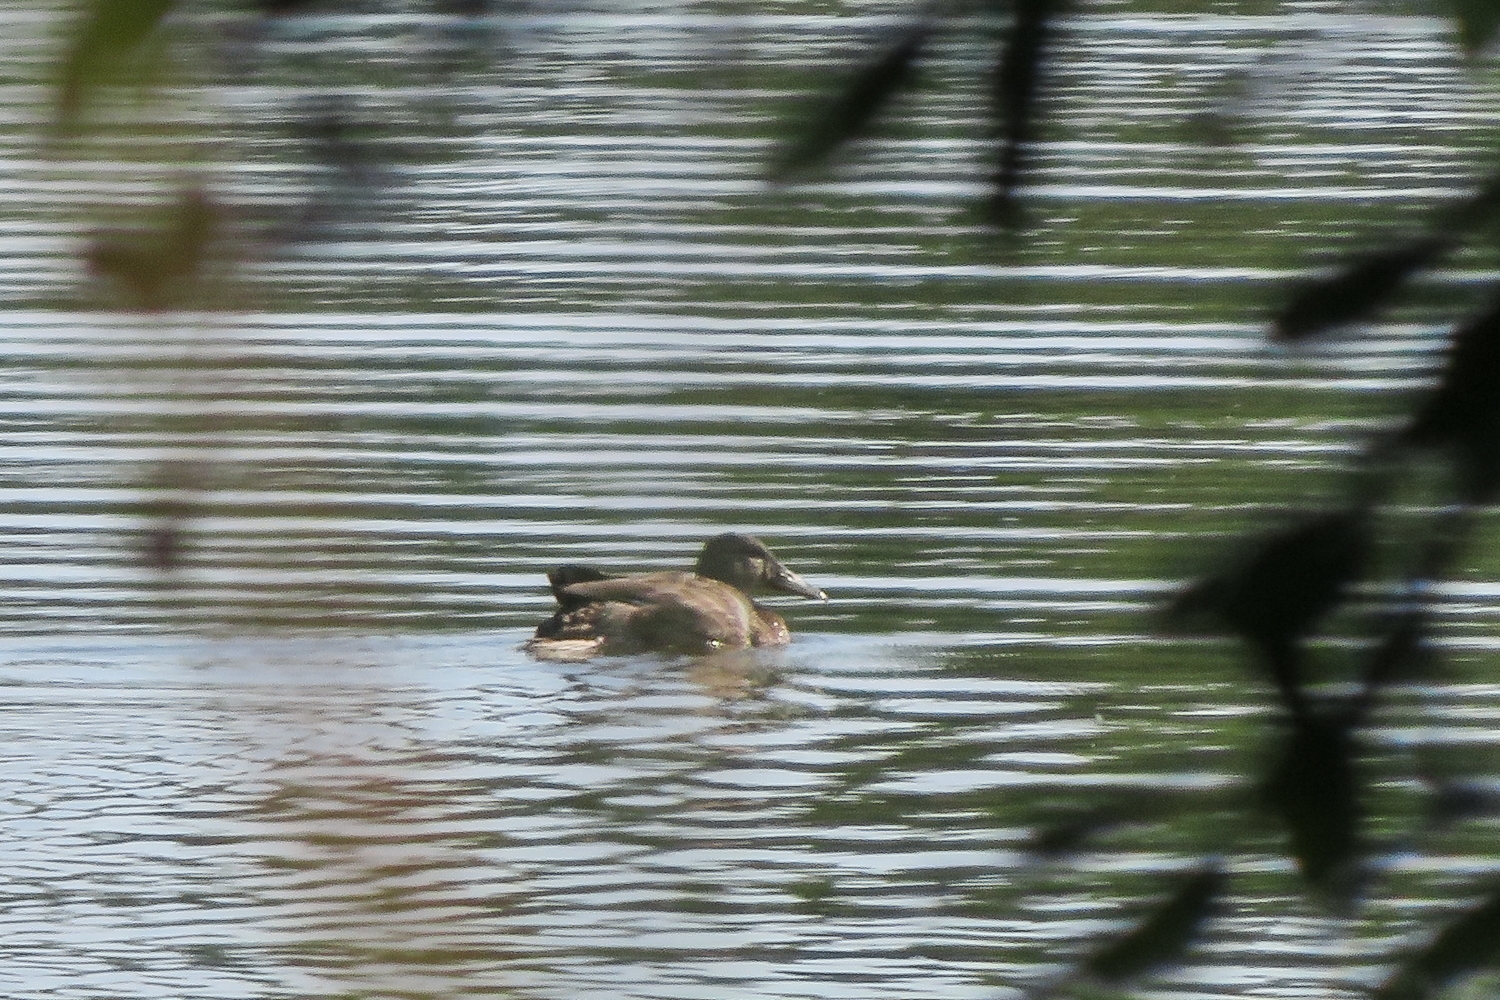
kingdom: Animalia
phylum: Chordata
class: Aves
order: Anseriformes
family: Anatidae
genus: Anas
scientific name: Anas platyrhynchos
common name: Mallard
